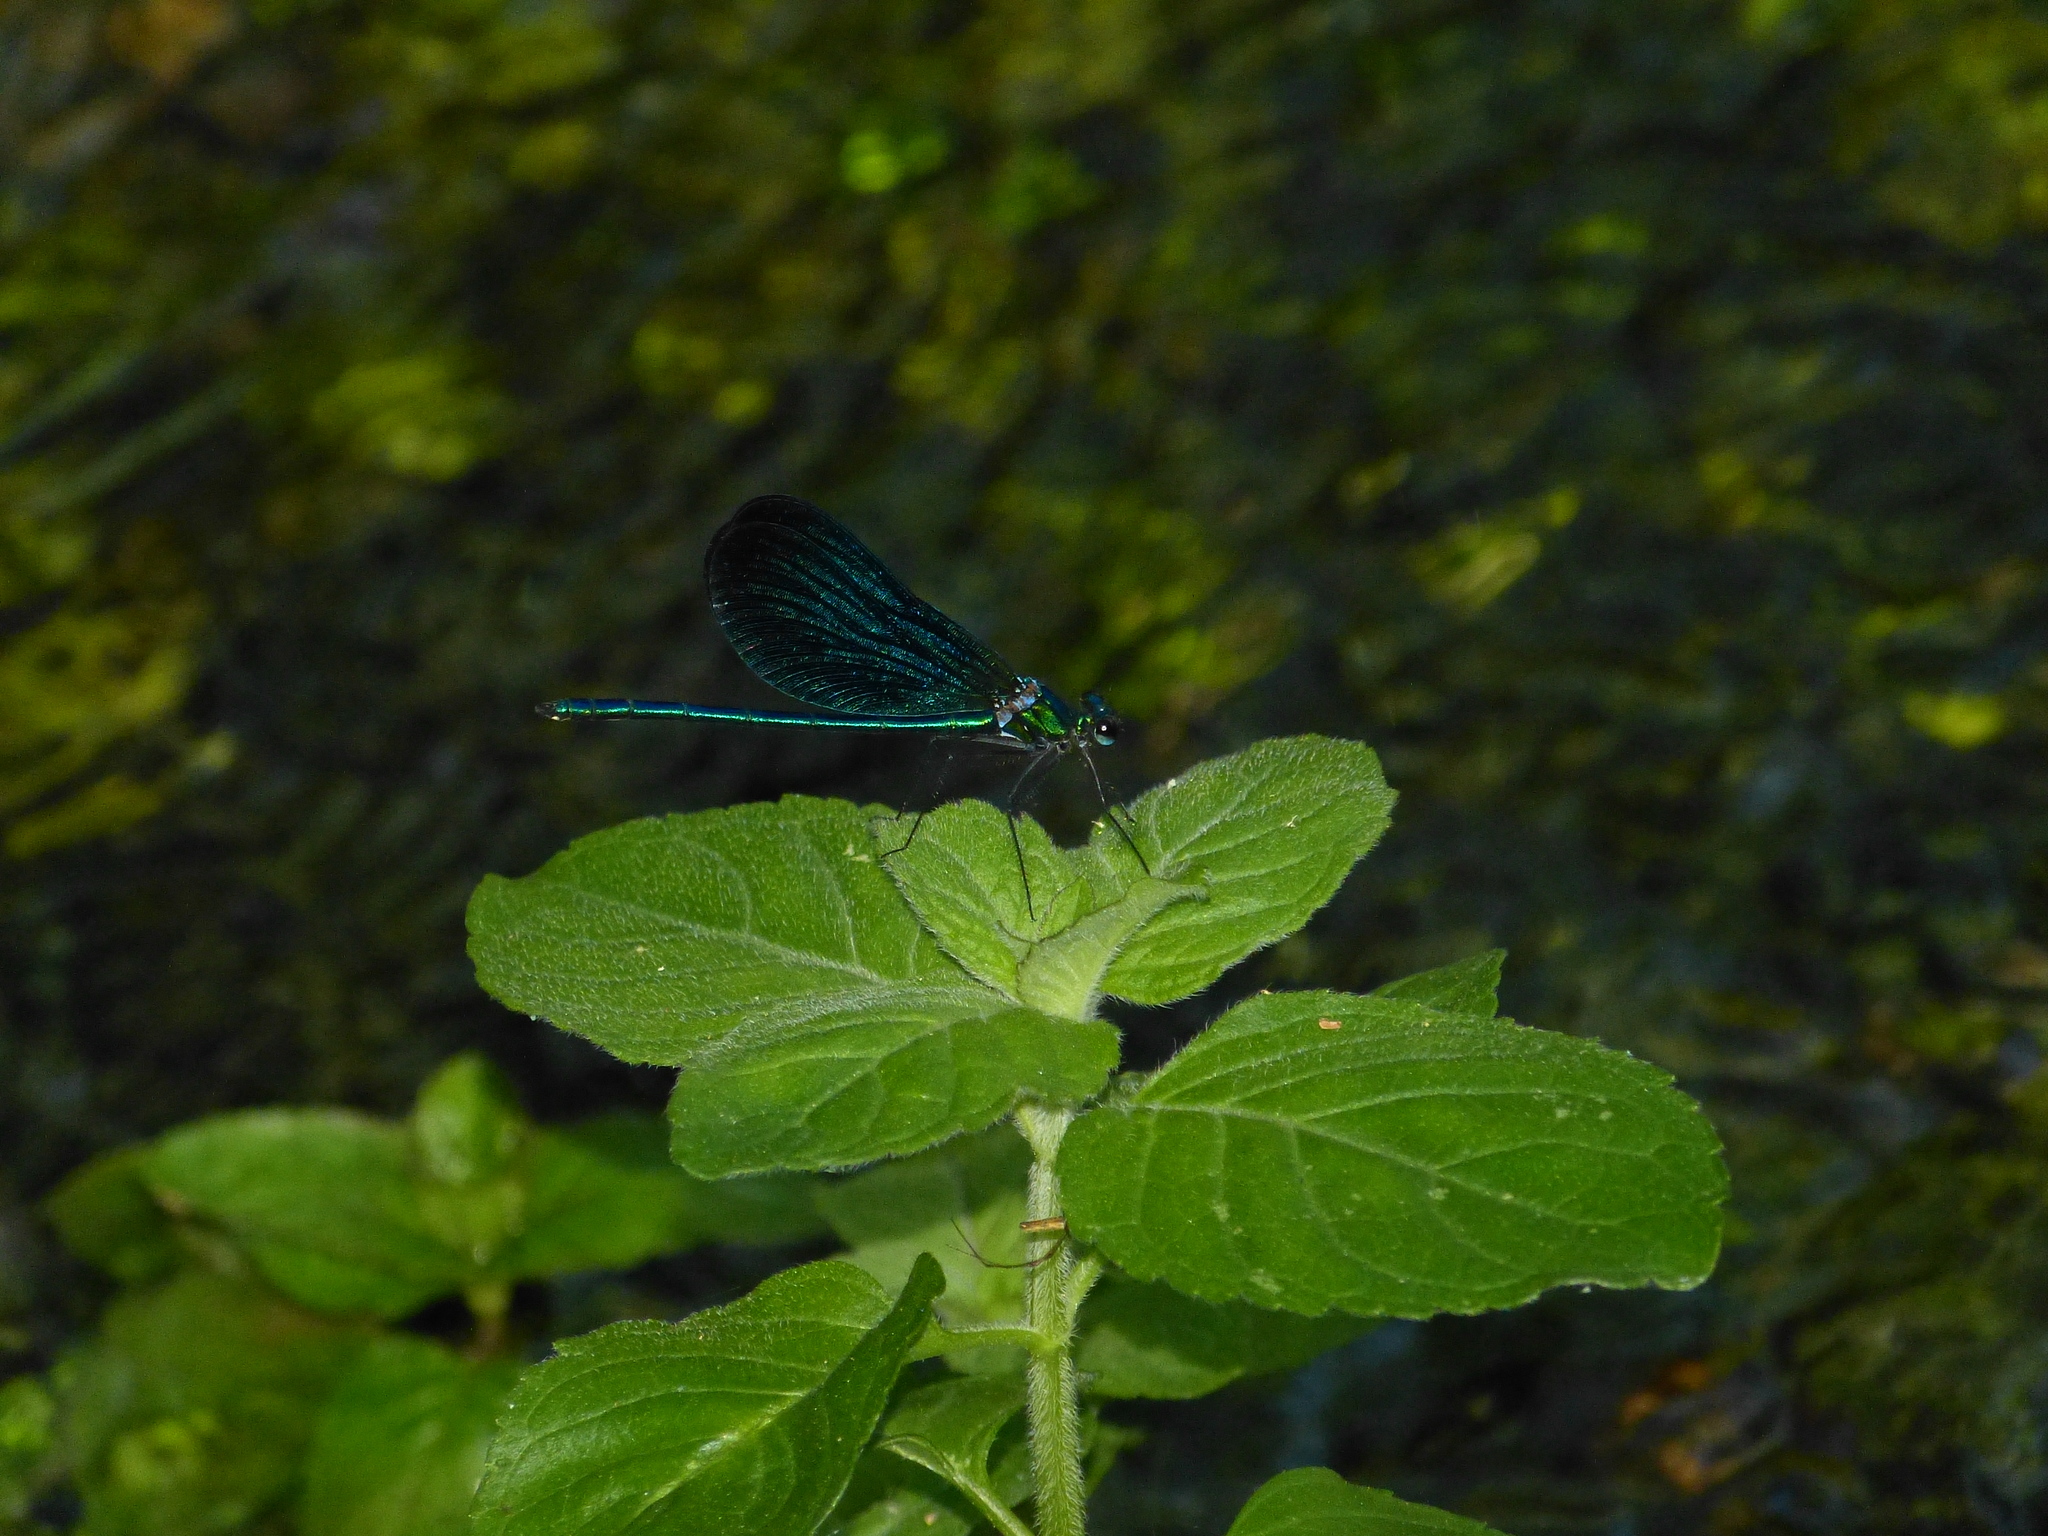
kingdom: Animalia
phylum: Arthropoda
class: Insecta
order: Odonata
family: Calopterygidae
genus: Calopteryx
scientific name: Calopteryx virgo
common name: Beautiful demoiselle
